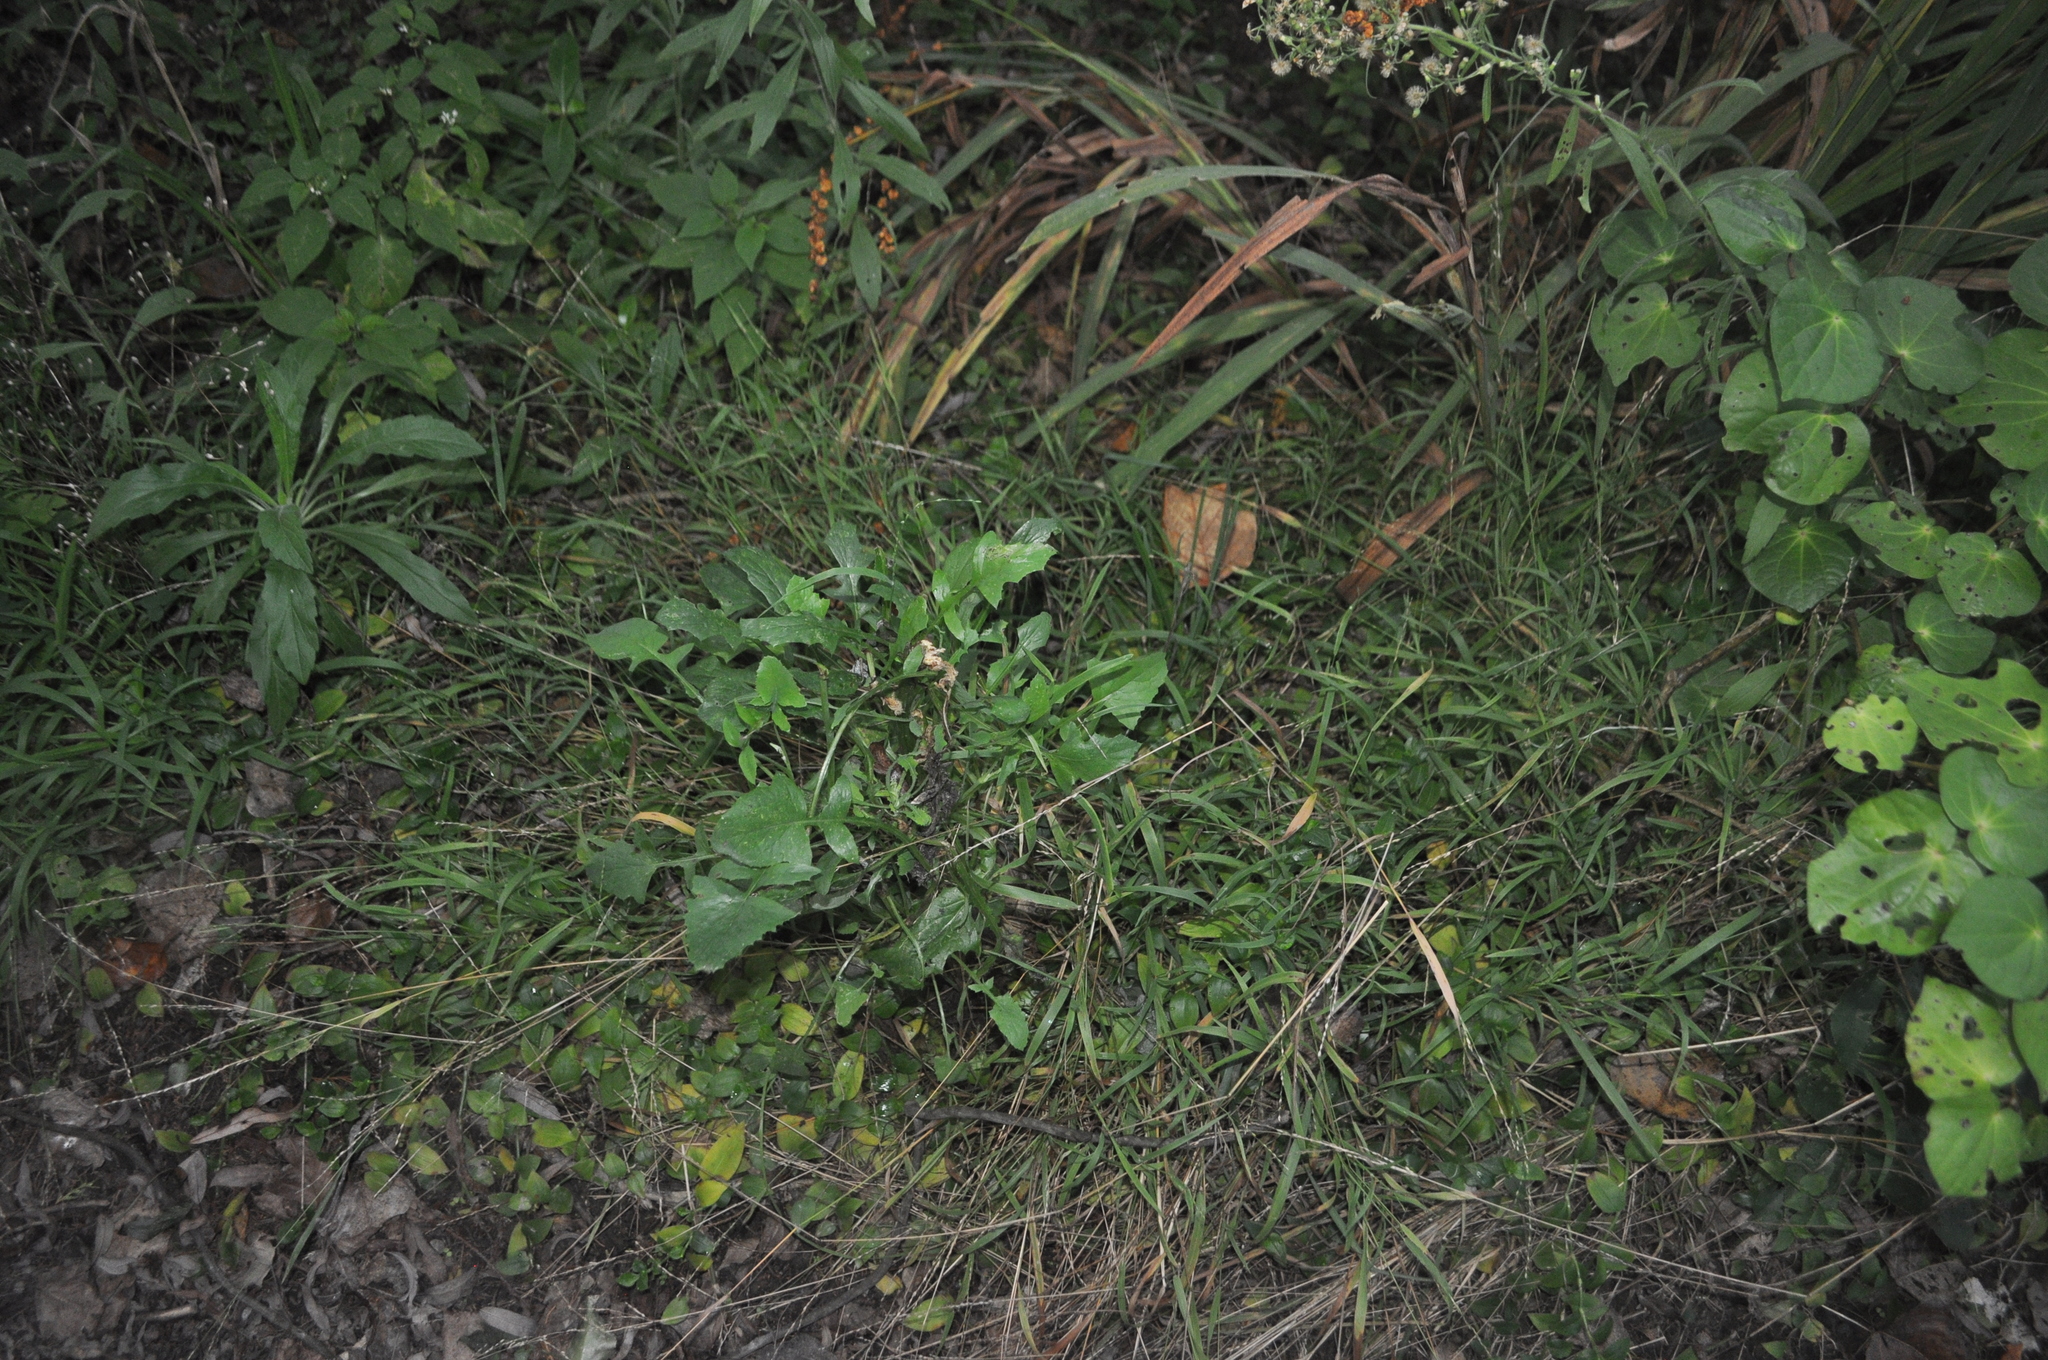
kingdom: Plantae
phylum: Tracheophyta
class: Magnoliopsida
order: Asterales
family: Asteraceae
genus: Sonchus
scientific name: Sonchus oleraceus
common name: Common sowthistle
